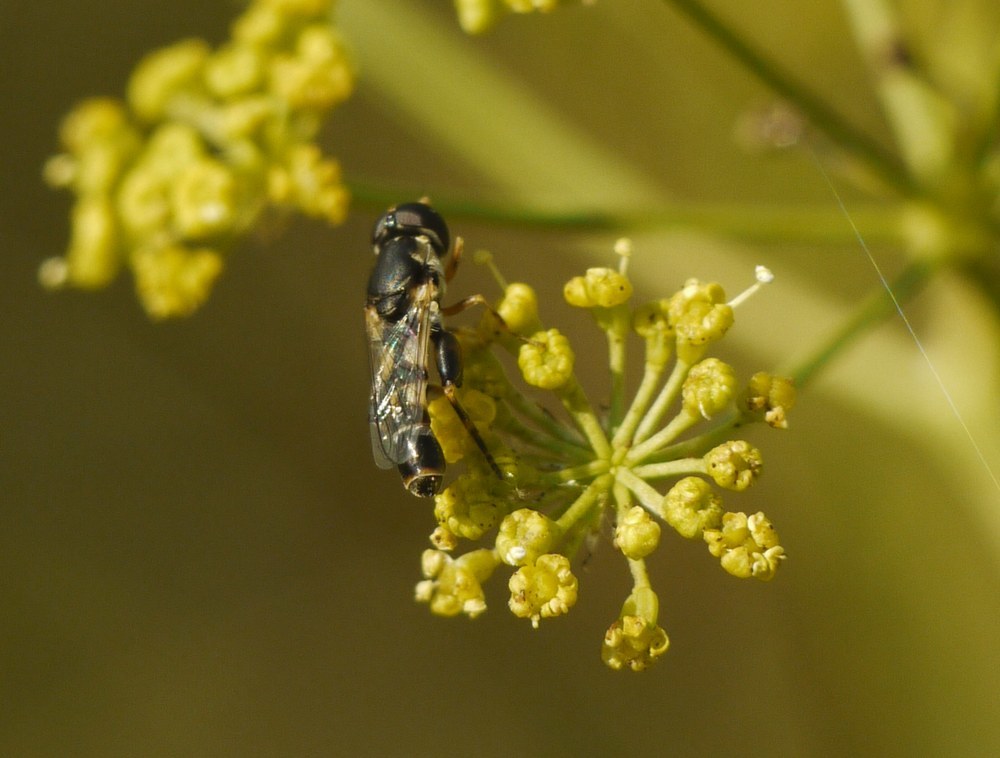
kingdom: Animalia
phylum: Arthropoda
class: Insecta
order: Diptera
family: Syrphidae
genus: Syritta
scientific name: Syritta pipiens
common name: Hover fly
